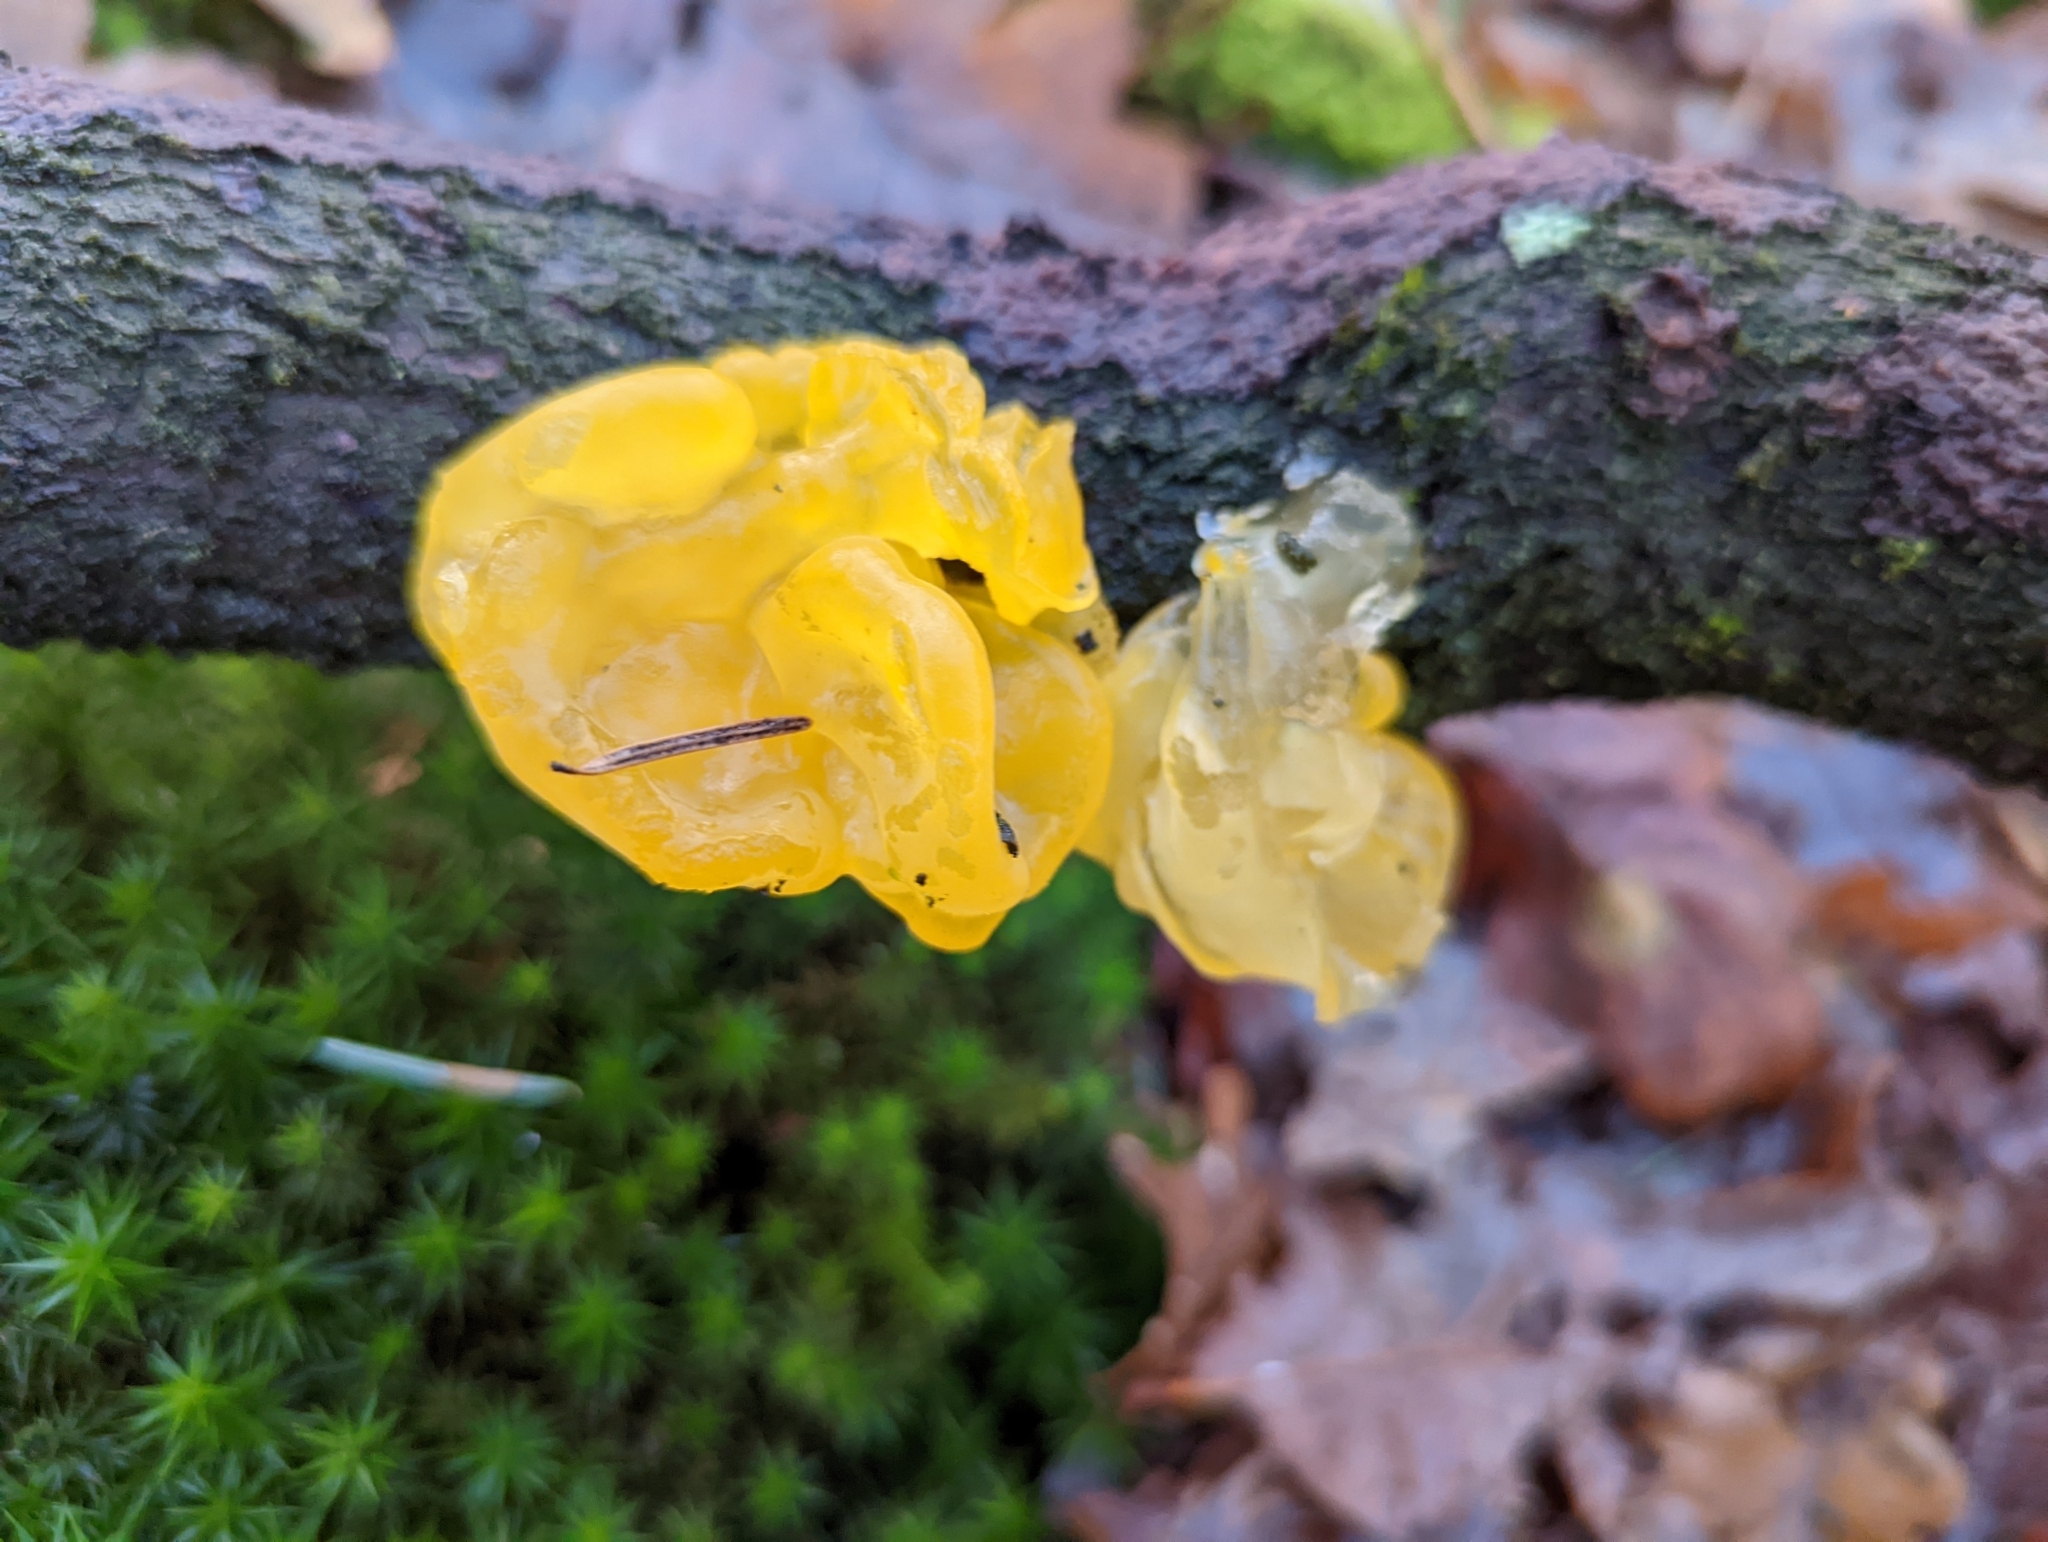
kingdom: Fungi
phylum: Basidiomycota
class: Tremellomycetes
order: Tremellales
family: Tremellaceae
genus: Tremella
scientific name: Tremella mesenterica
